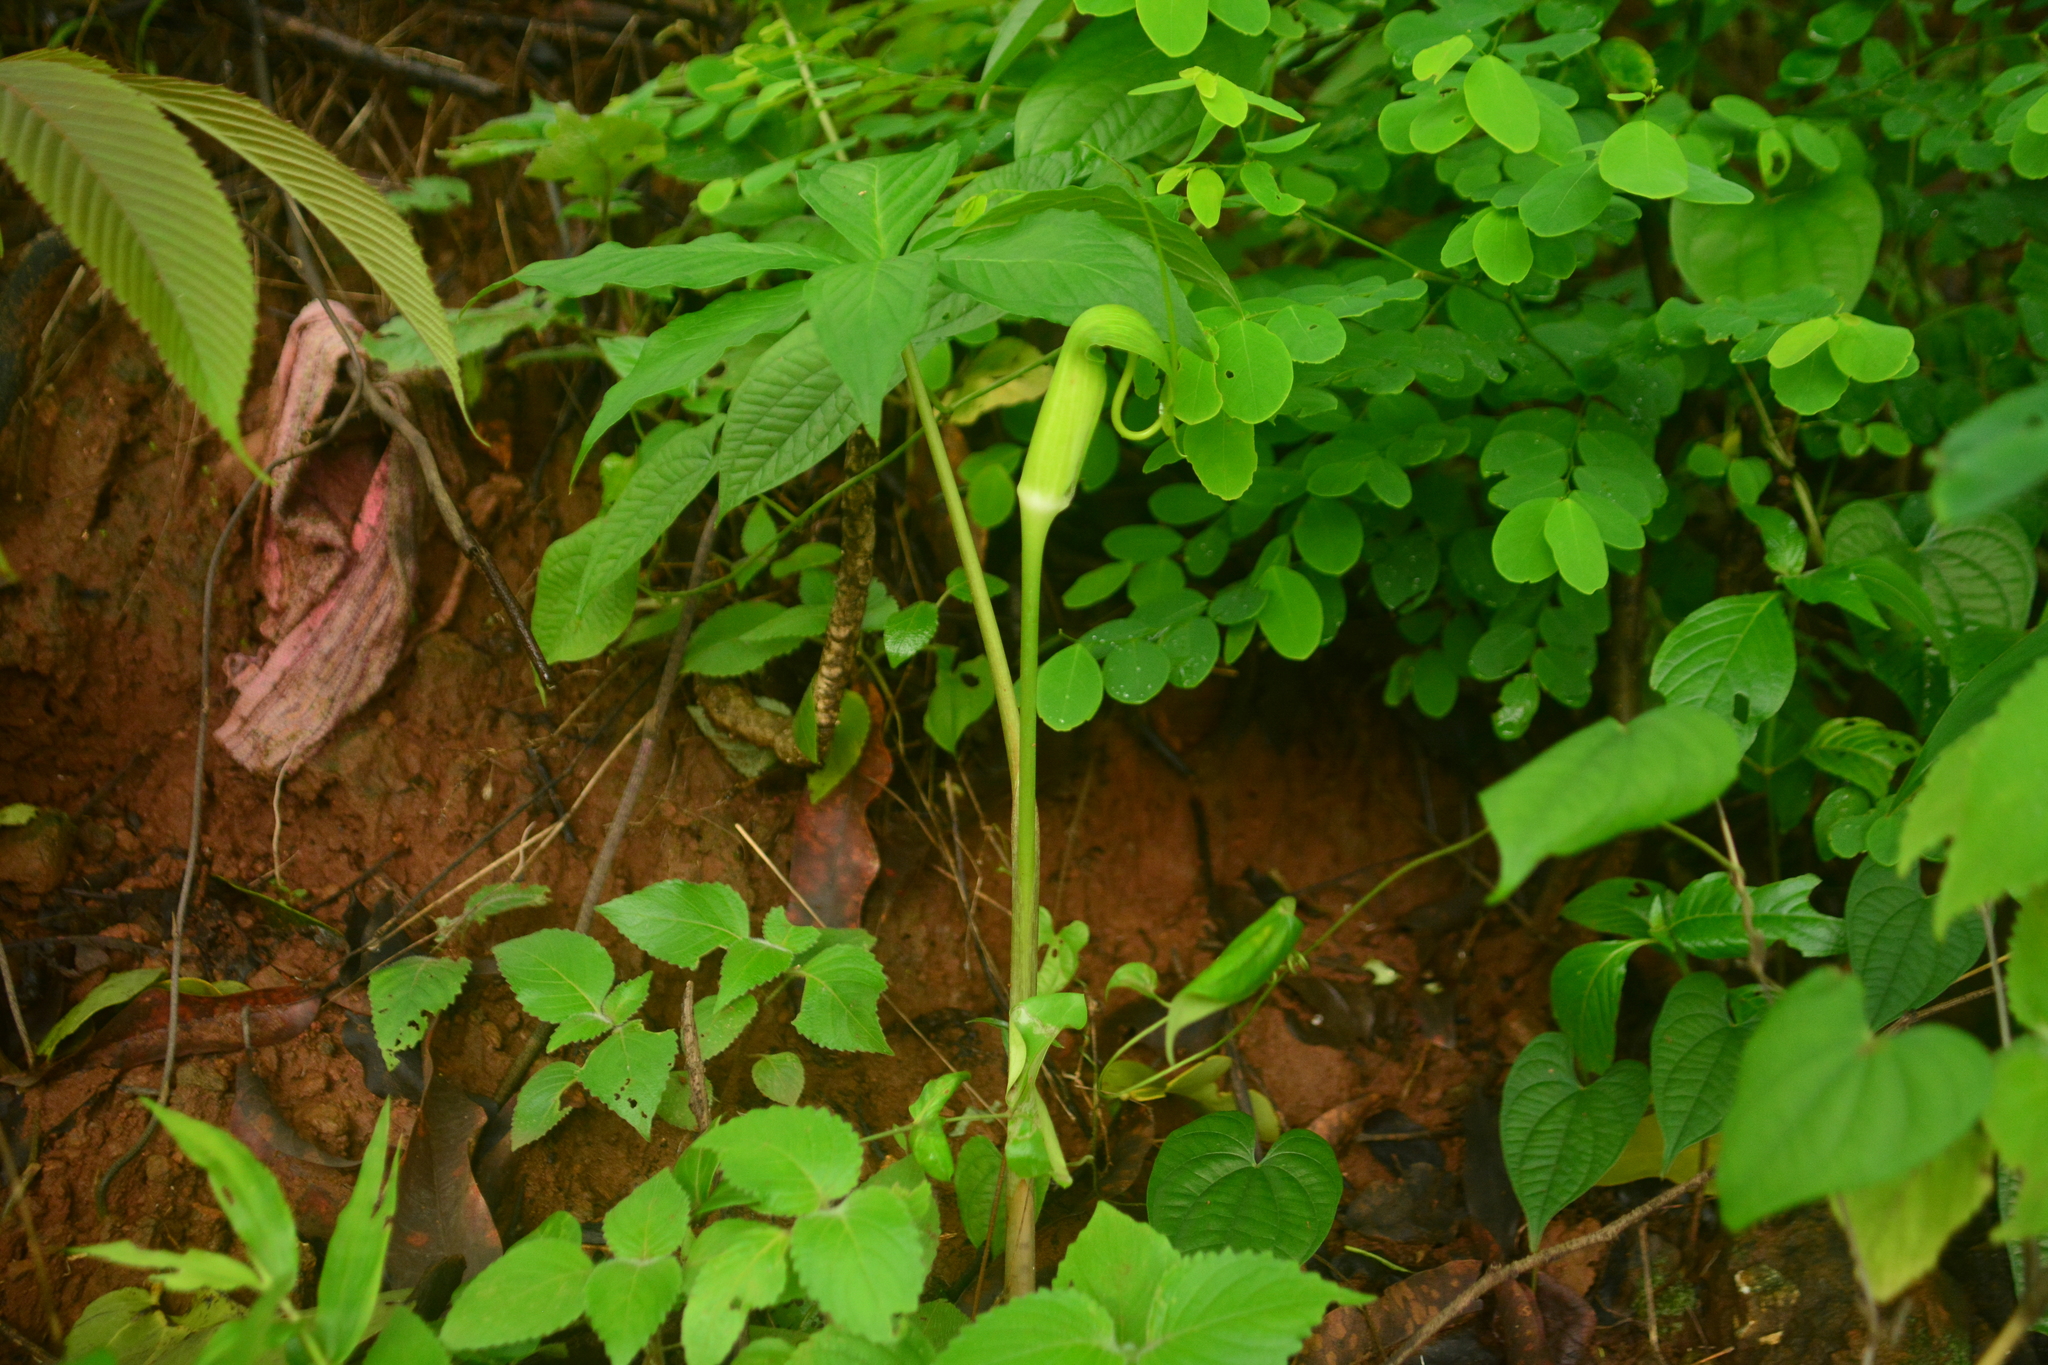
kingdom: Plantae
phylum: Tracheophyta
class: Liliopsida
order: Alismatales
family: Araceae
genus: Arisaema
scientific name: Arisaema tortuosum
